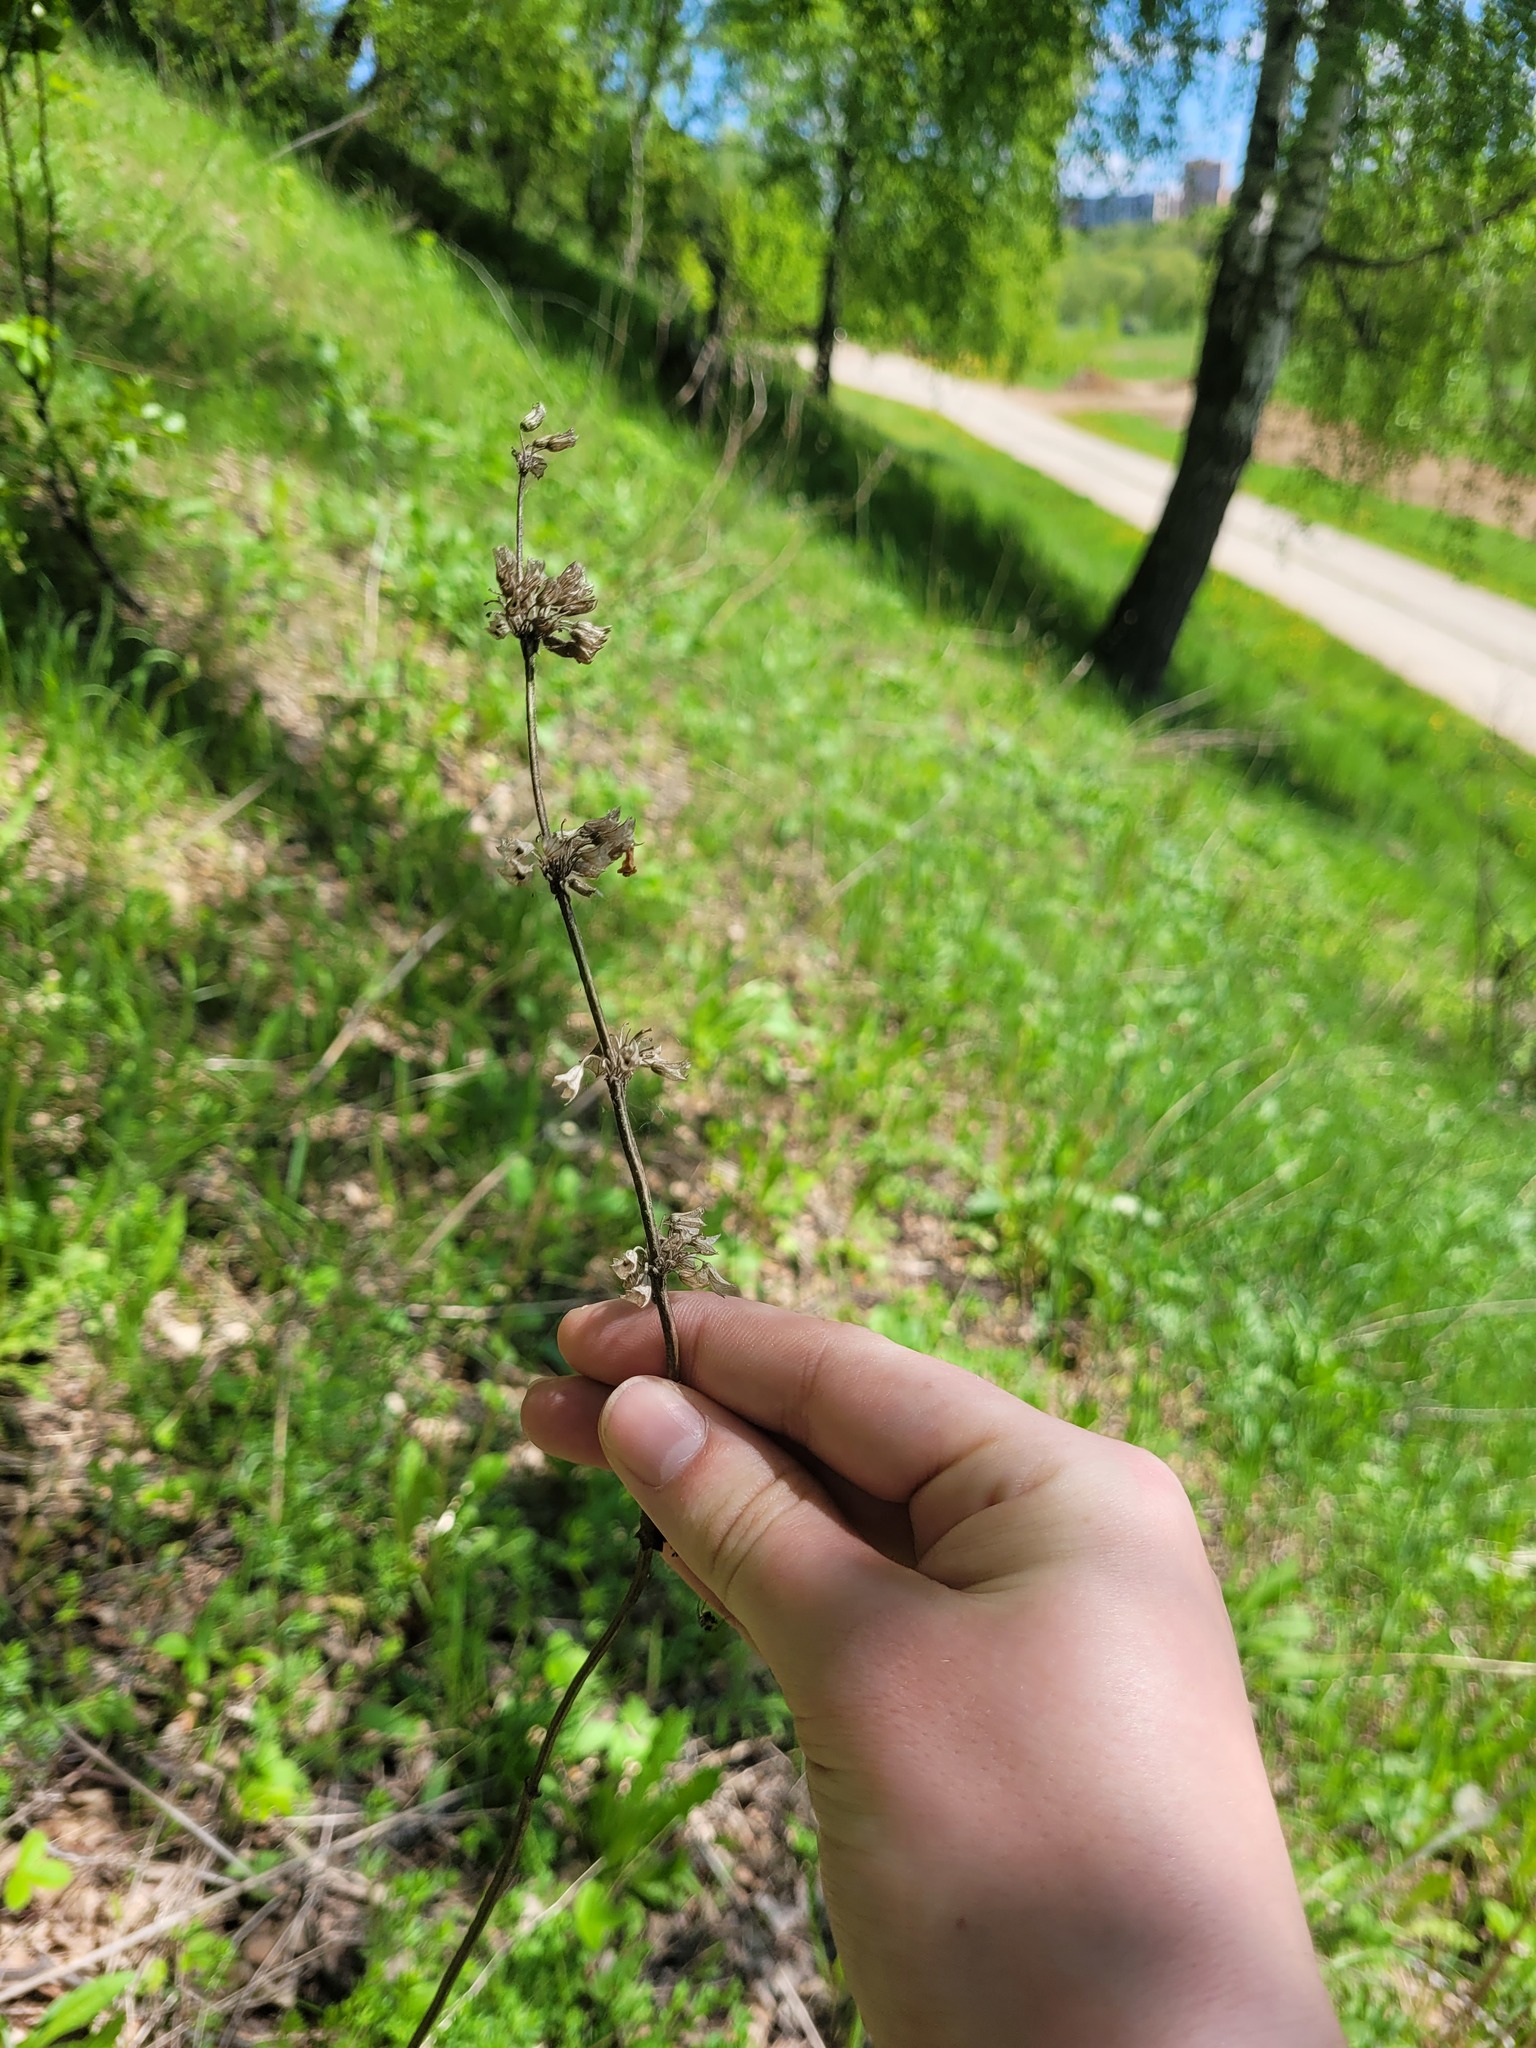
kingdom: Plantae
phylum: Tracheophyta
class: Magnoliopsida
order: Lamiales
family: Lamiaceae
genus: Salvia
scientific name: Salvia verticillata
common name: Whorled clary
